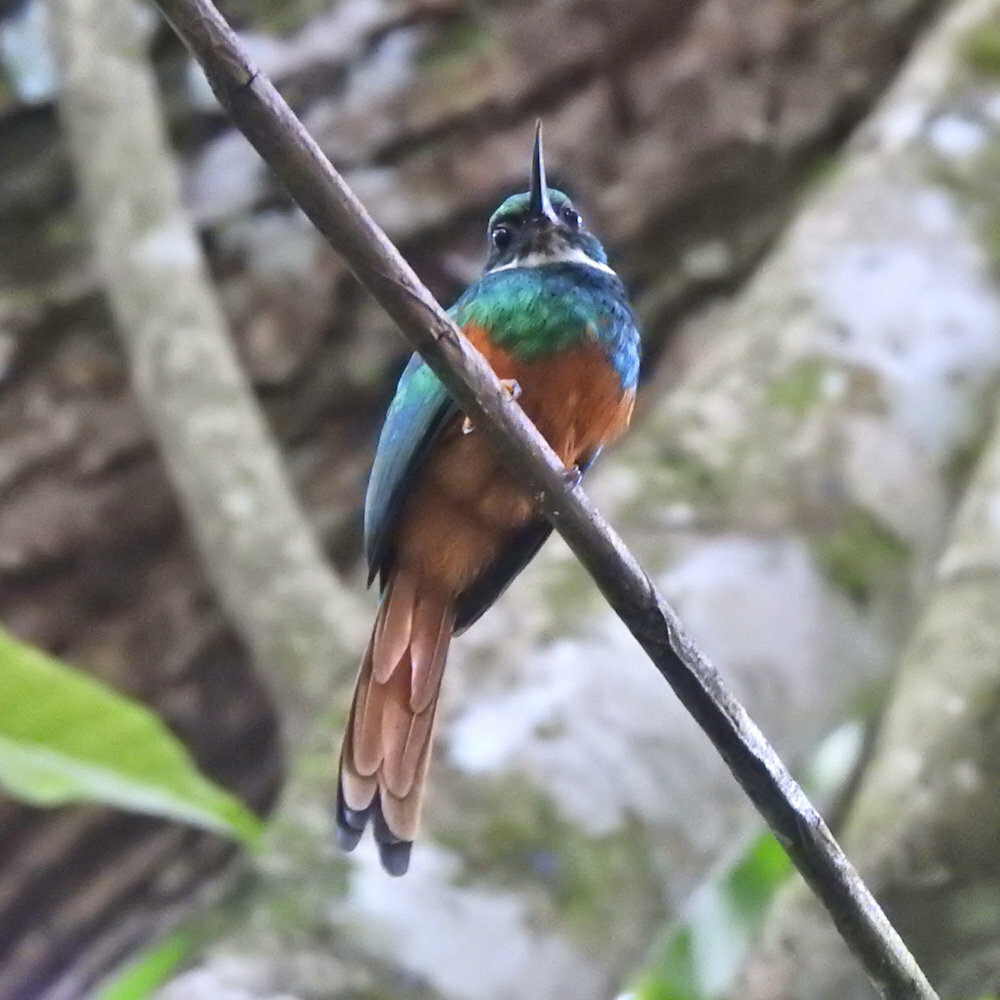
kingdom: Animalia
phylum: Chordata
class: Aves
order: Piciformes
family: Galbulidae
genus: Galbula
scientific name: Galbula ruficauda
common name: Rufous-tailed jacamar
